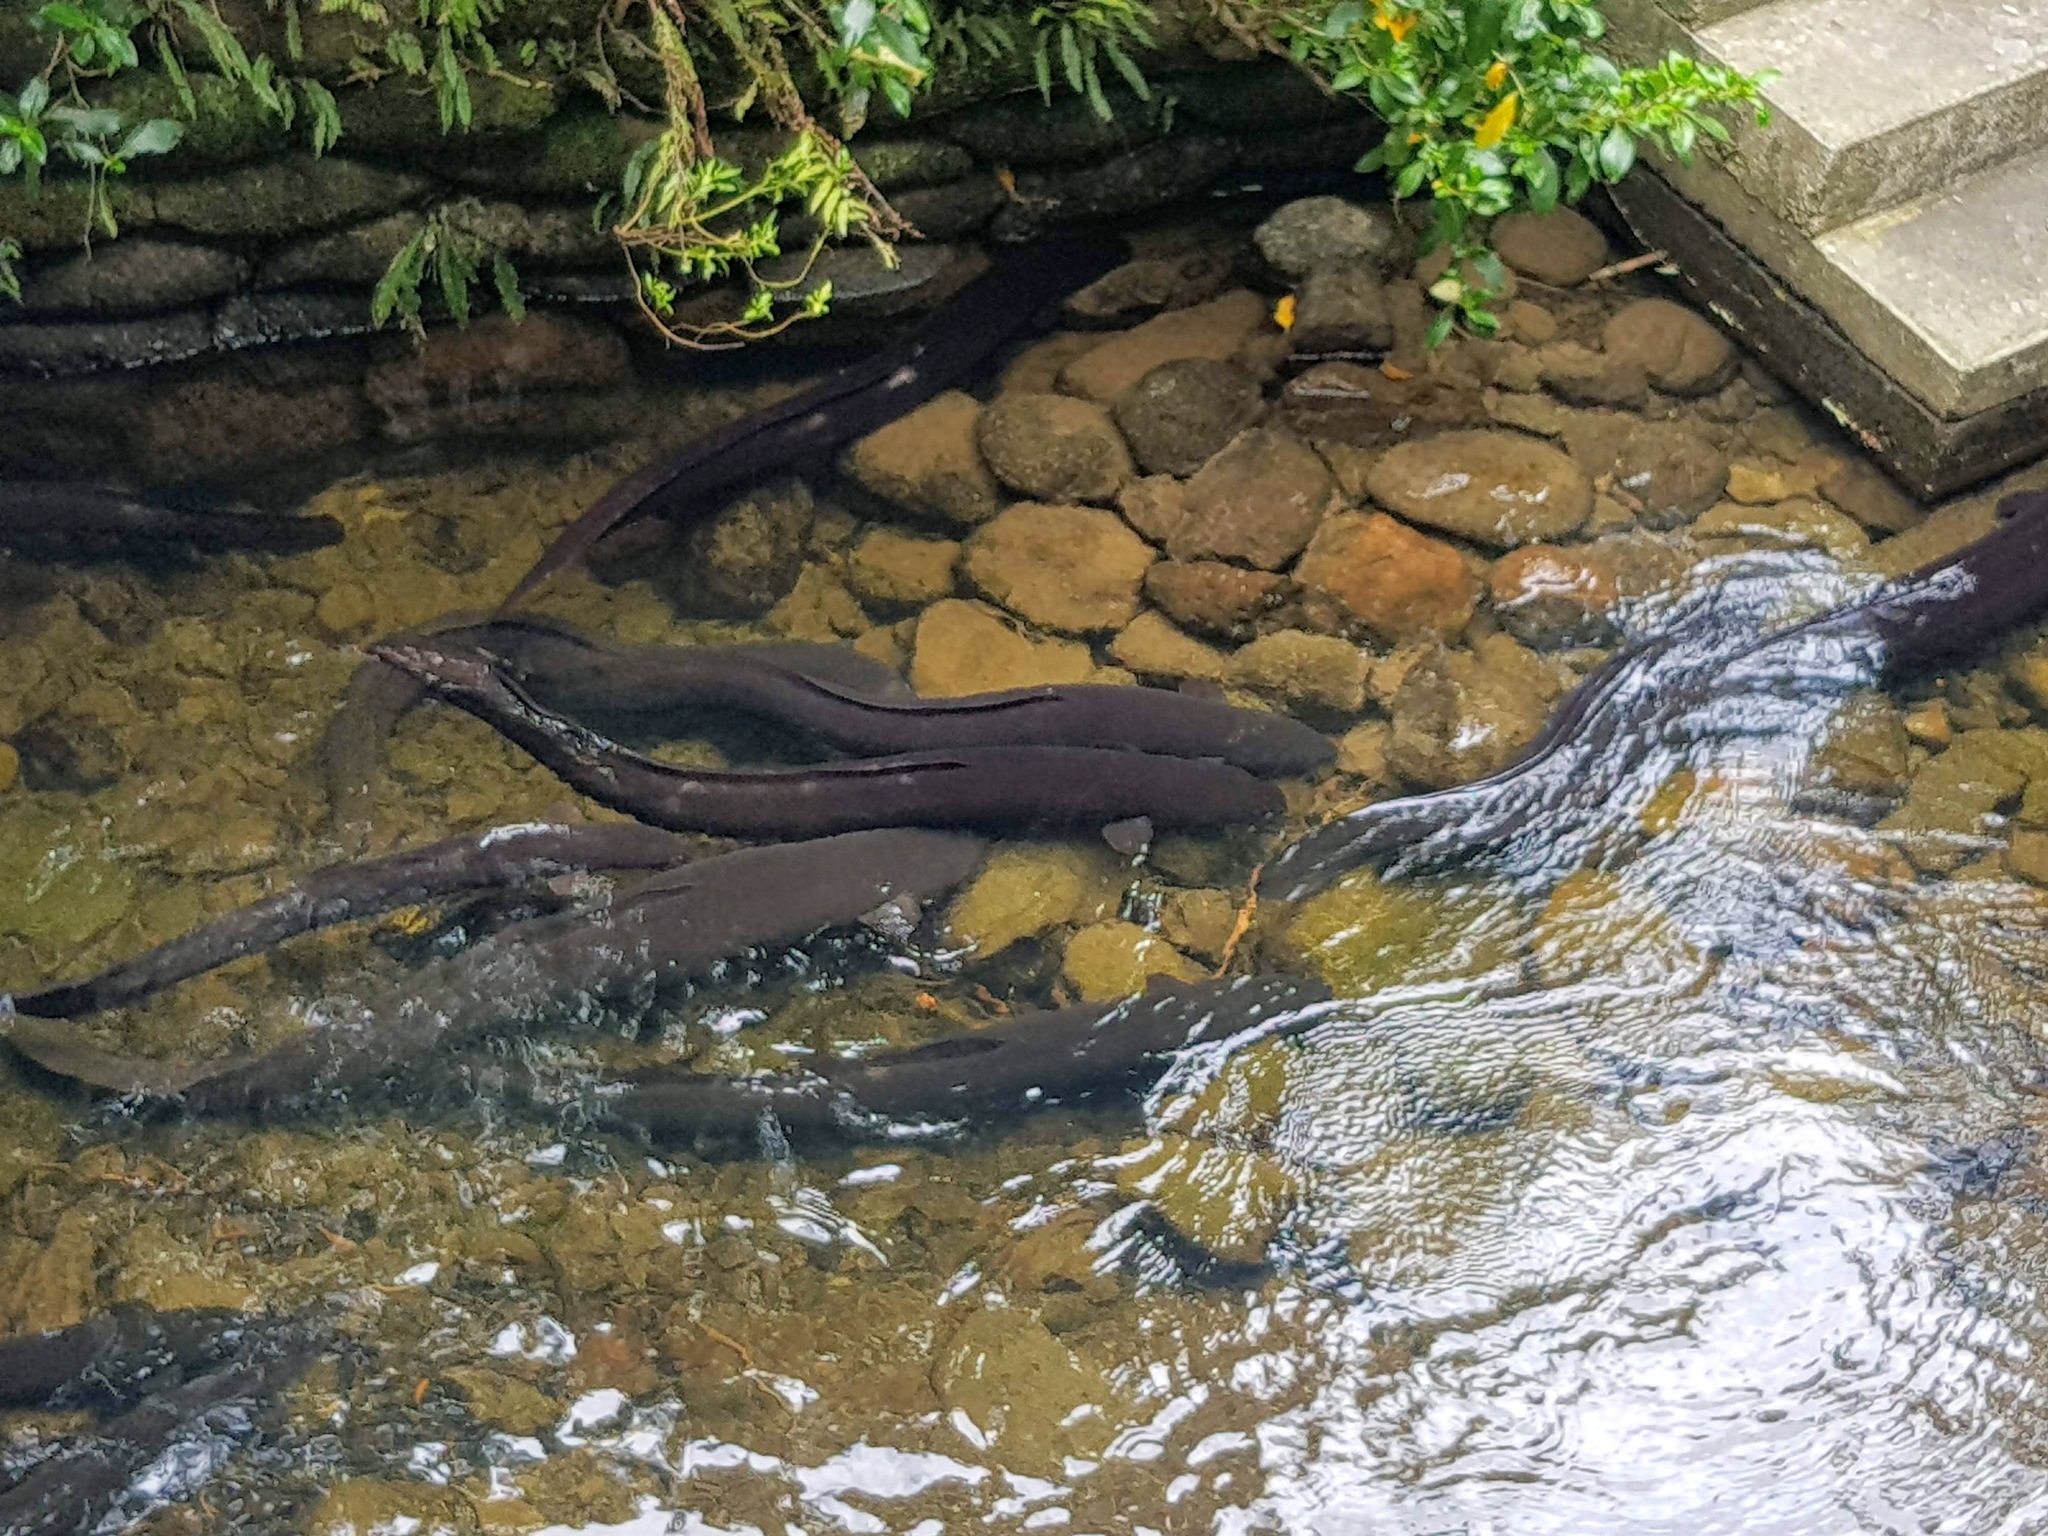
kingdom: Animalia
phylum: Chordata
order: Anguilliformes
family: Anguillidae
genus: Anguilla
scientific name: Anguilla dieffenbachii
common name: New zealand longfin eel
